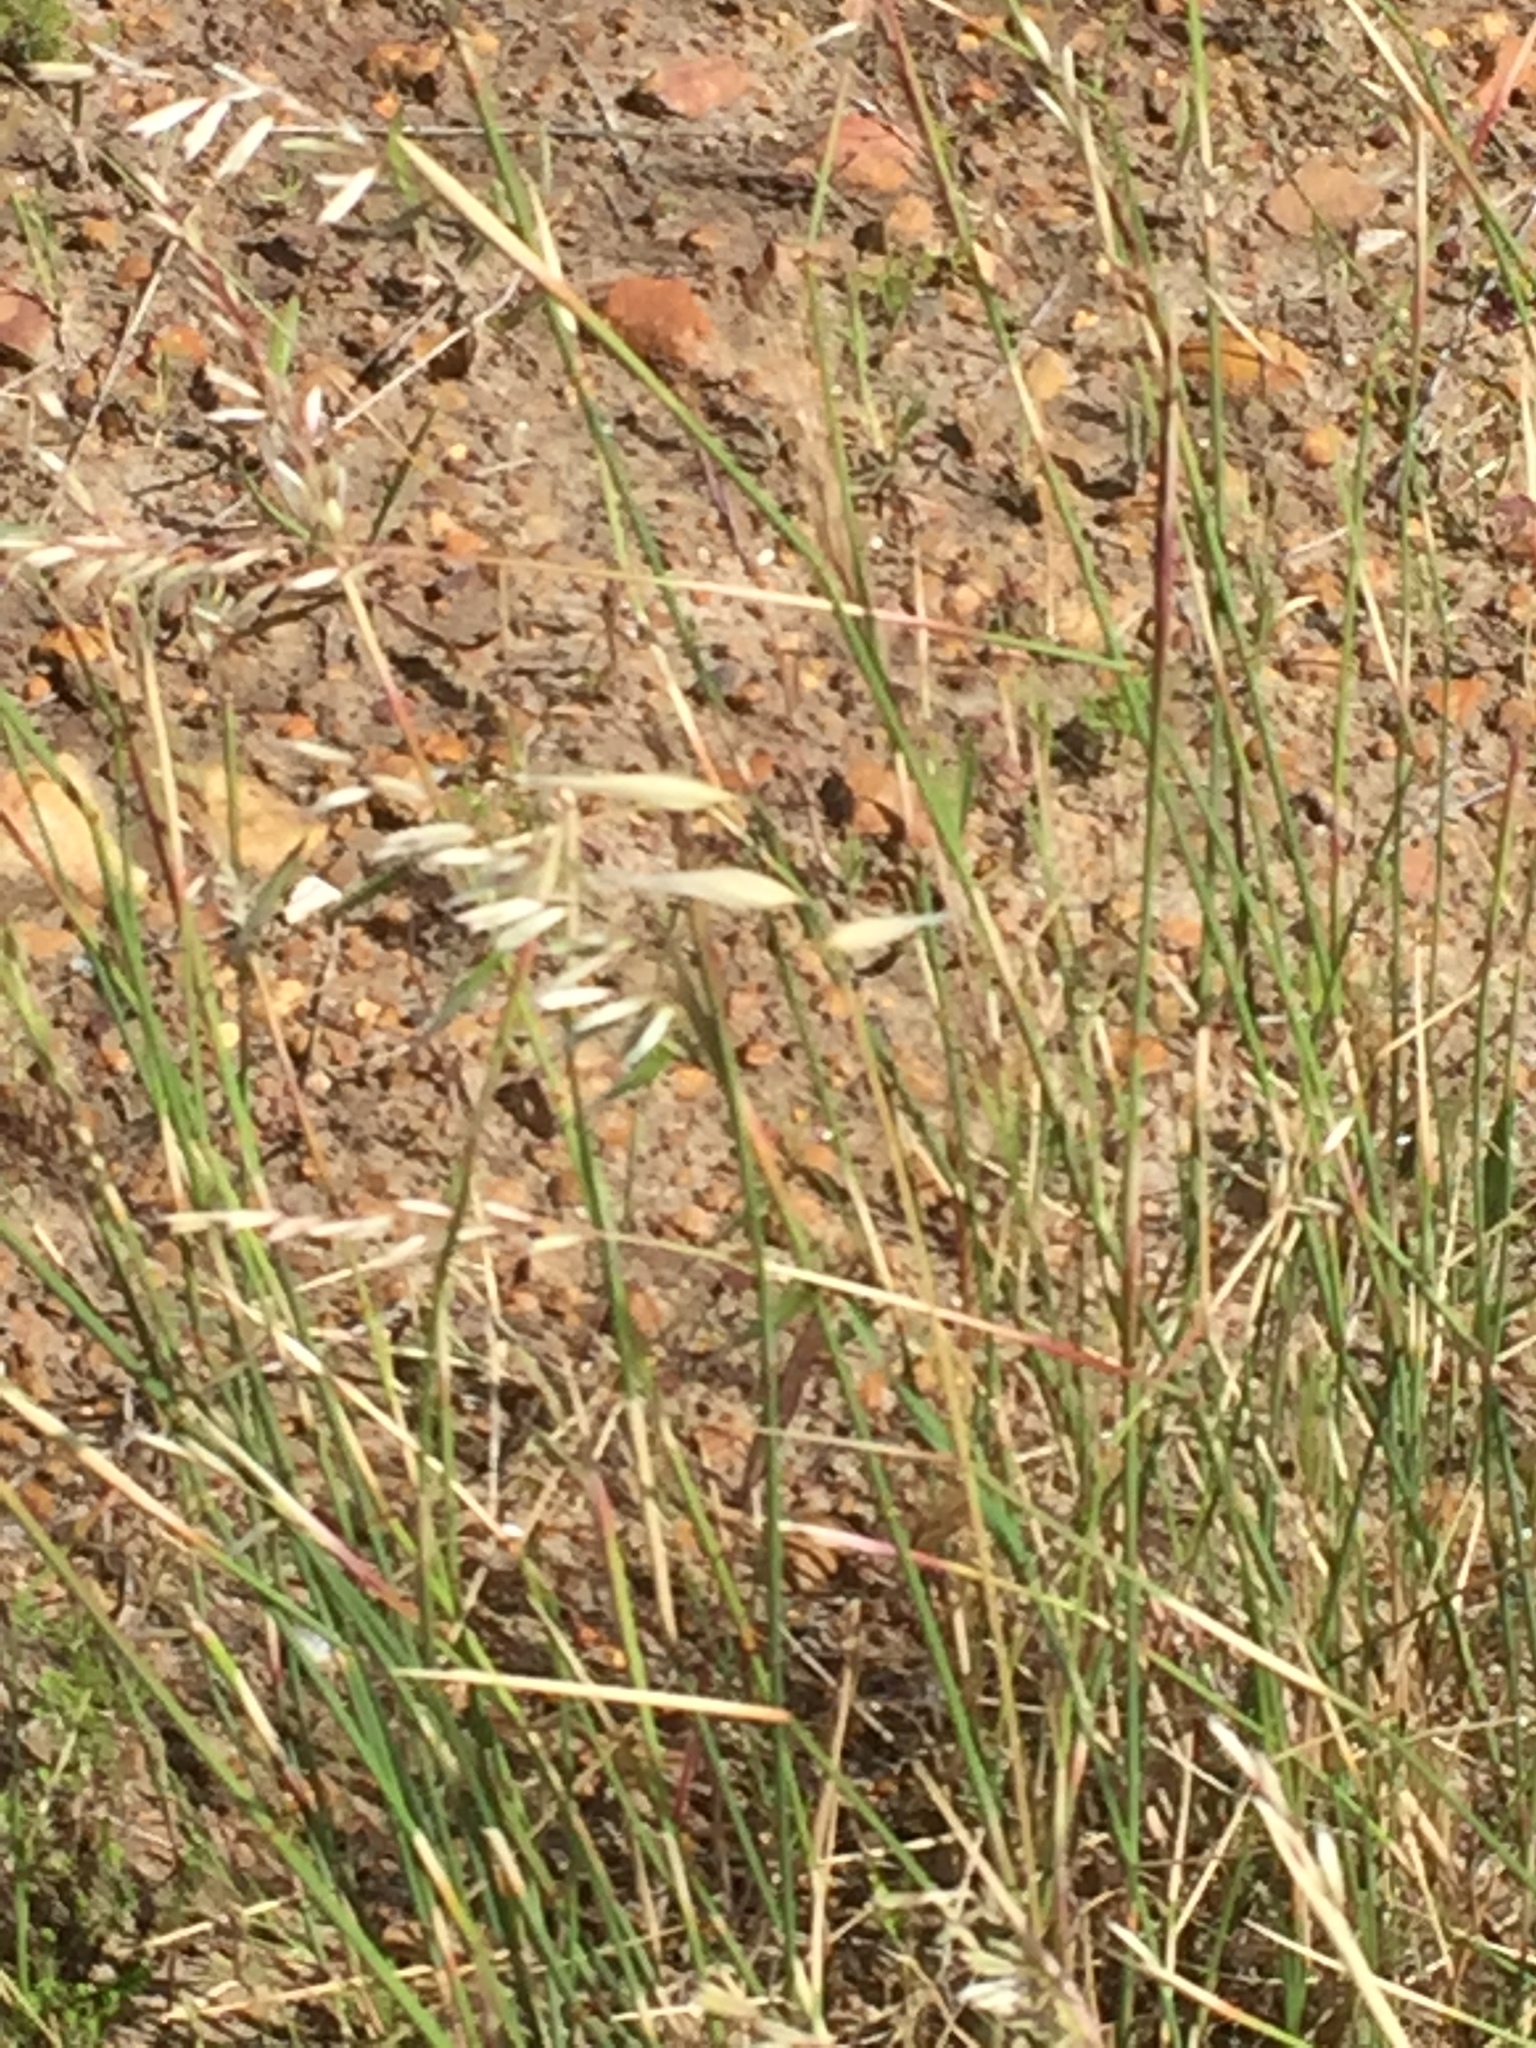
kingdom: Plantae
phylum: Tracheophyta
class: Liliopsida
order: Poales
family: Poaceae
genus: Ehrharta
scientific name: Ehrharta villosa
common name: Pyp grass
